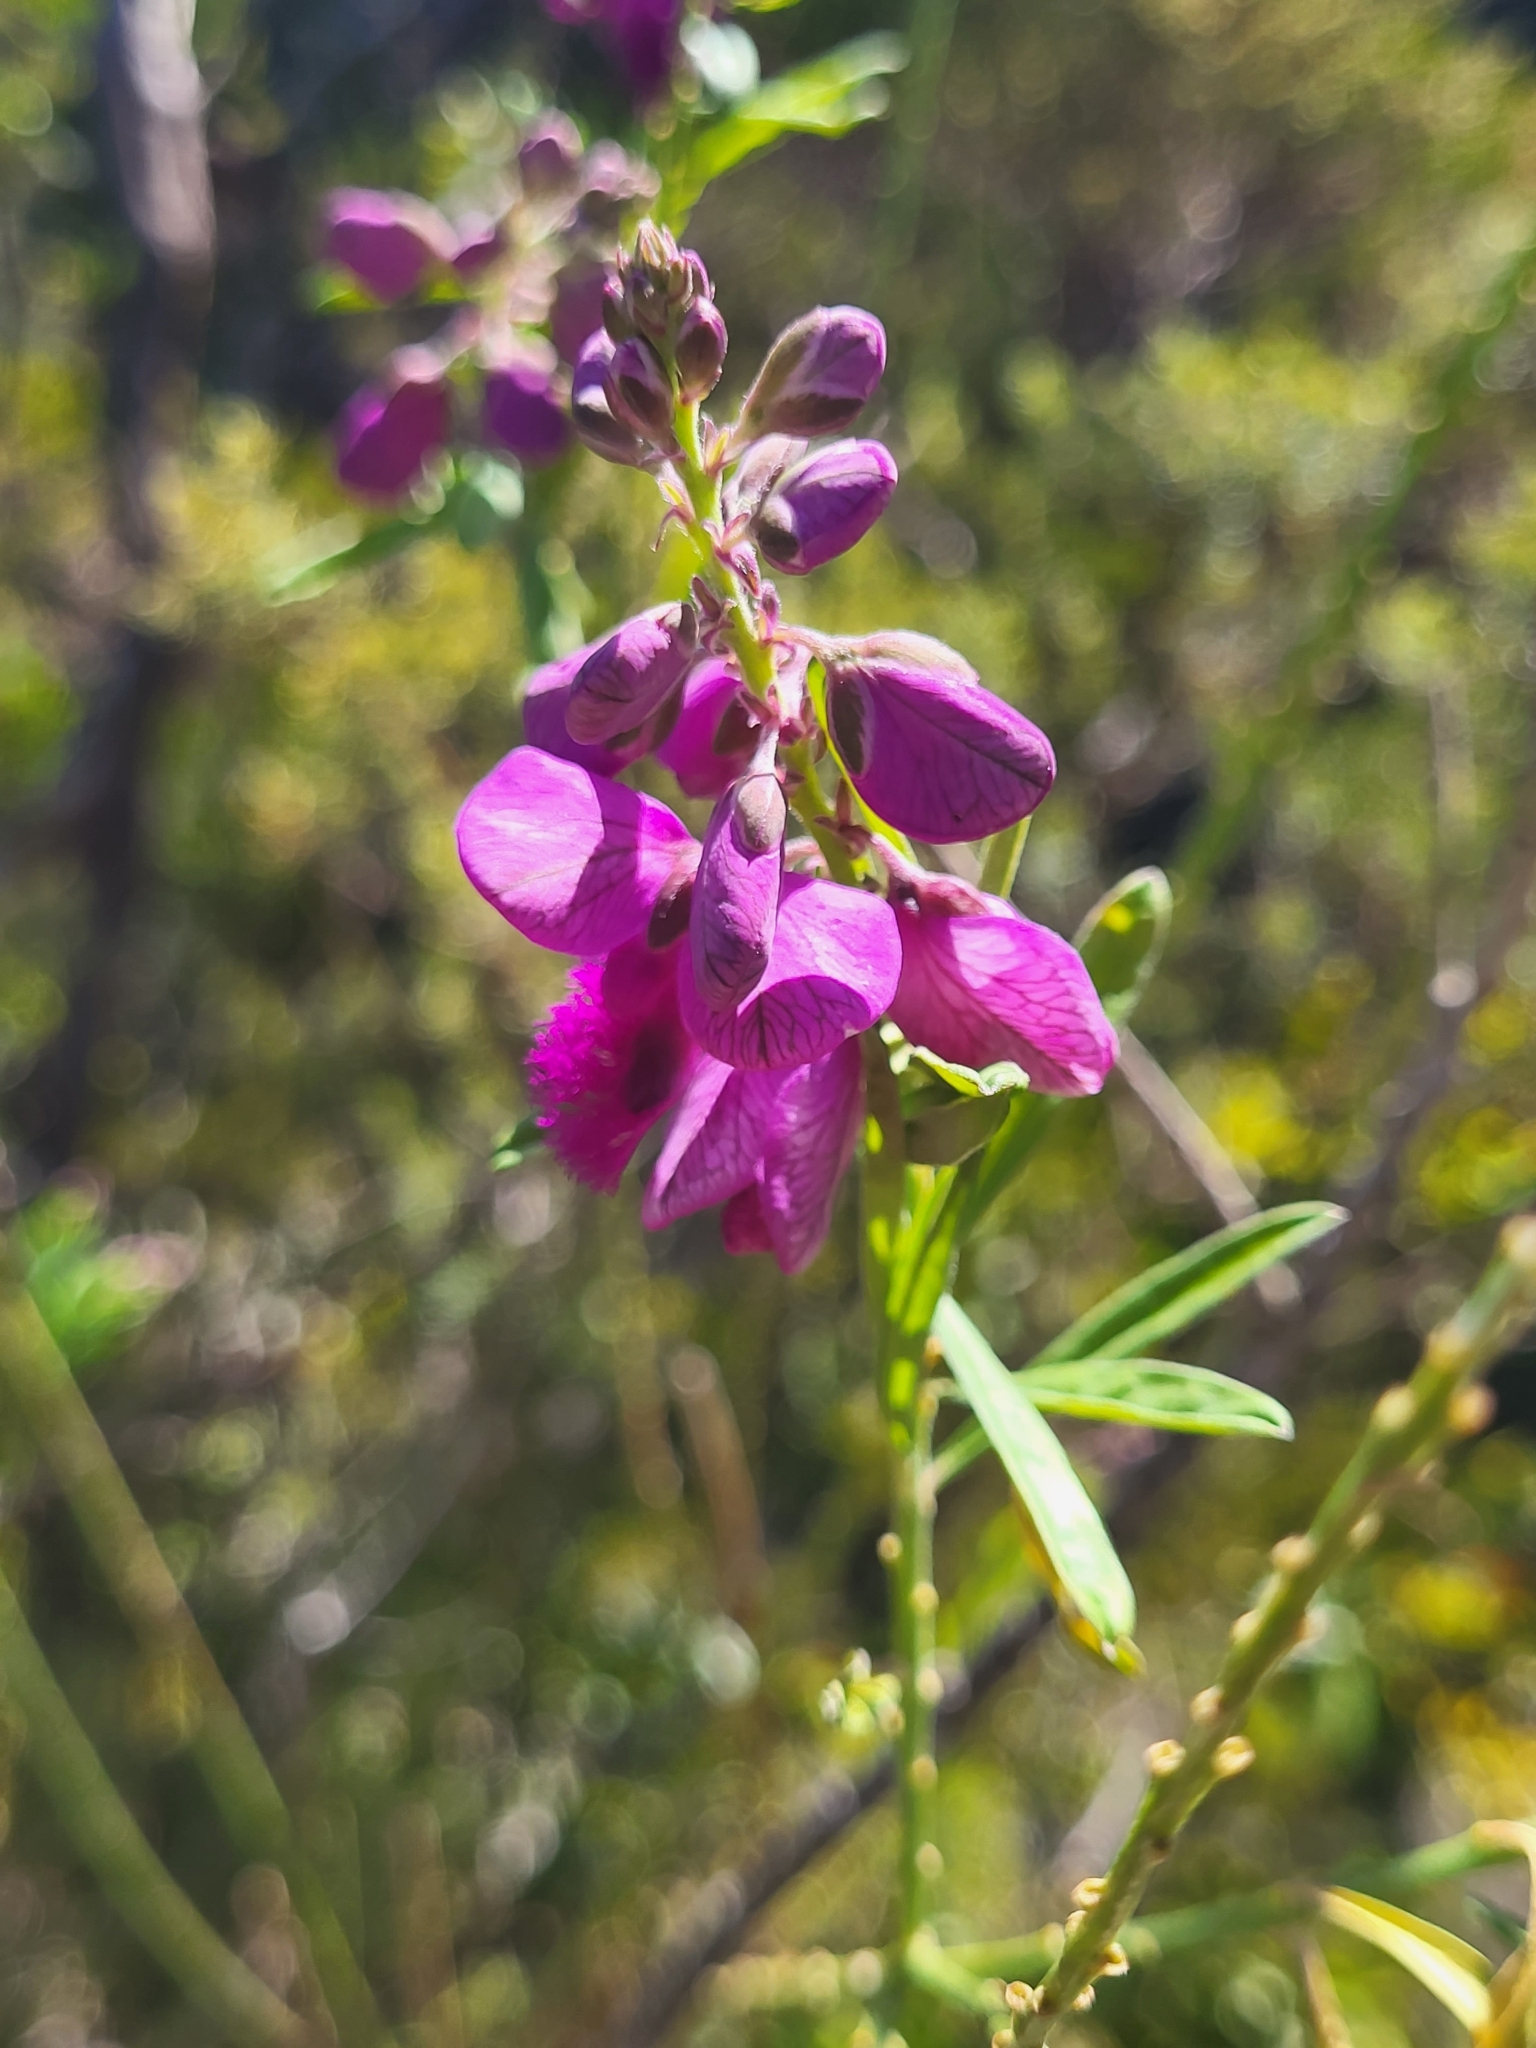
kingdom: Plantae
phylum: Tracheophyta
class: Magnoliopsida
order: Fabales
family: Polygalaceae
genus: Polygala
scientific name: Polygala virgata
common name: Milkwort
